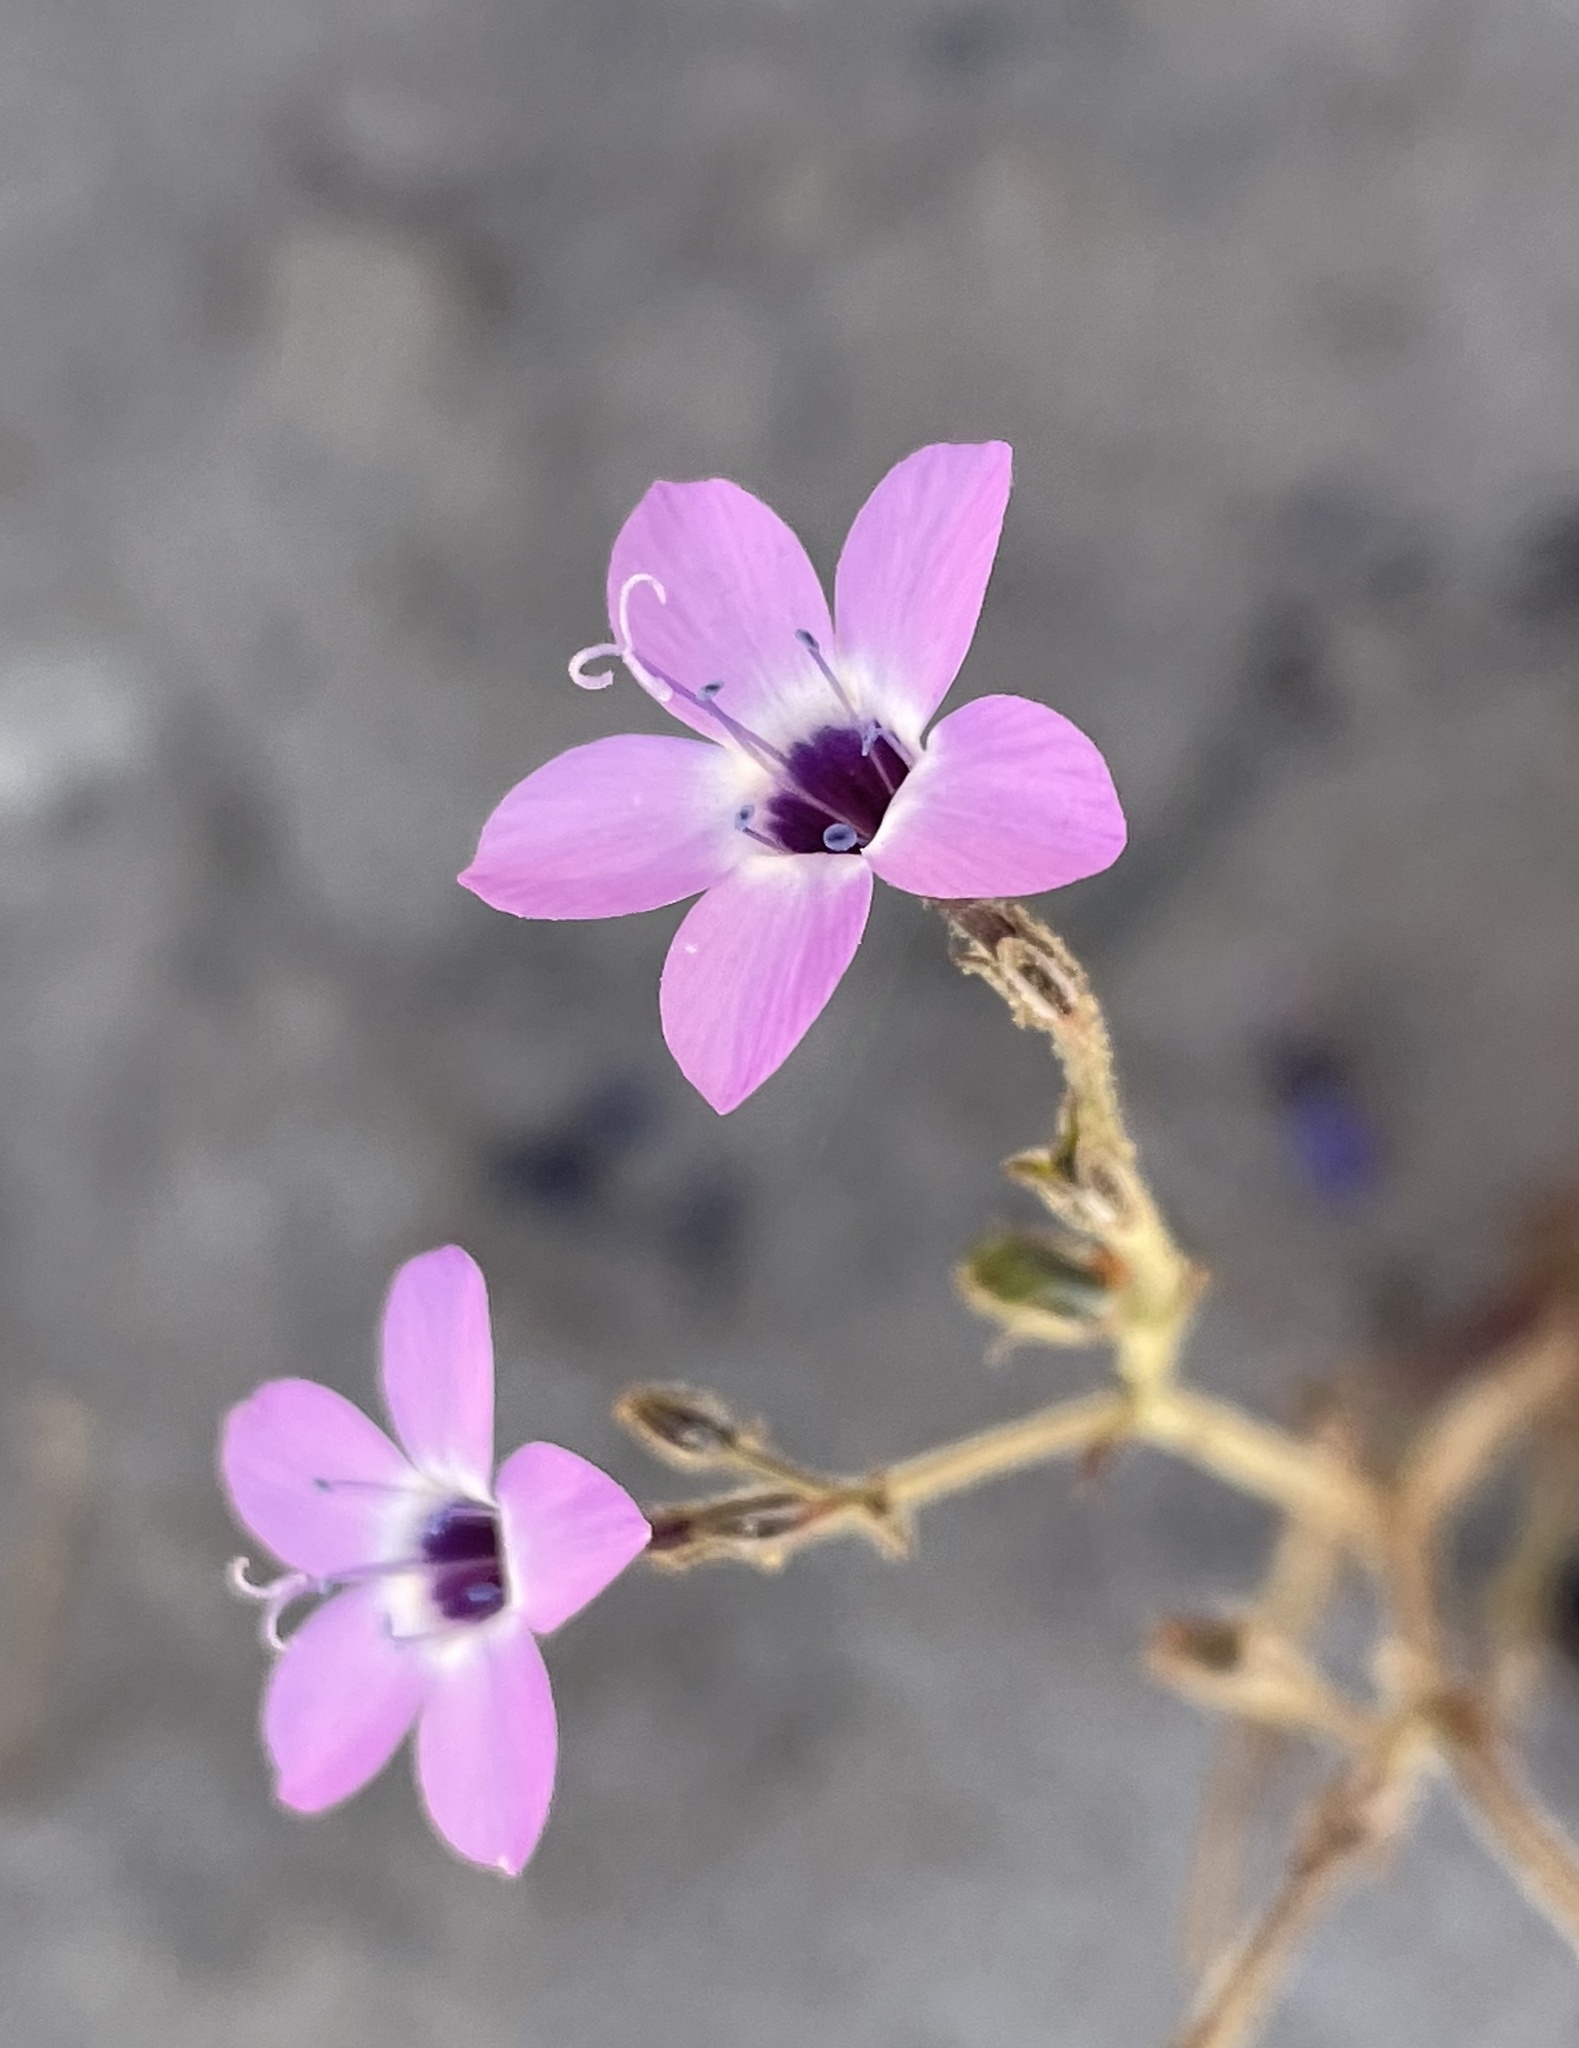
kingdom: Plantae
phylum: Tracheophyta
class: Magnoliopsida
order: Ericales
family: Polemoniaceae
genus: Gilia
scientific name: Gilia tenuiflora
